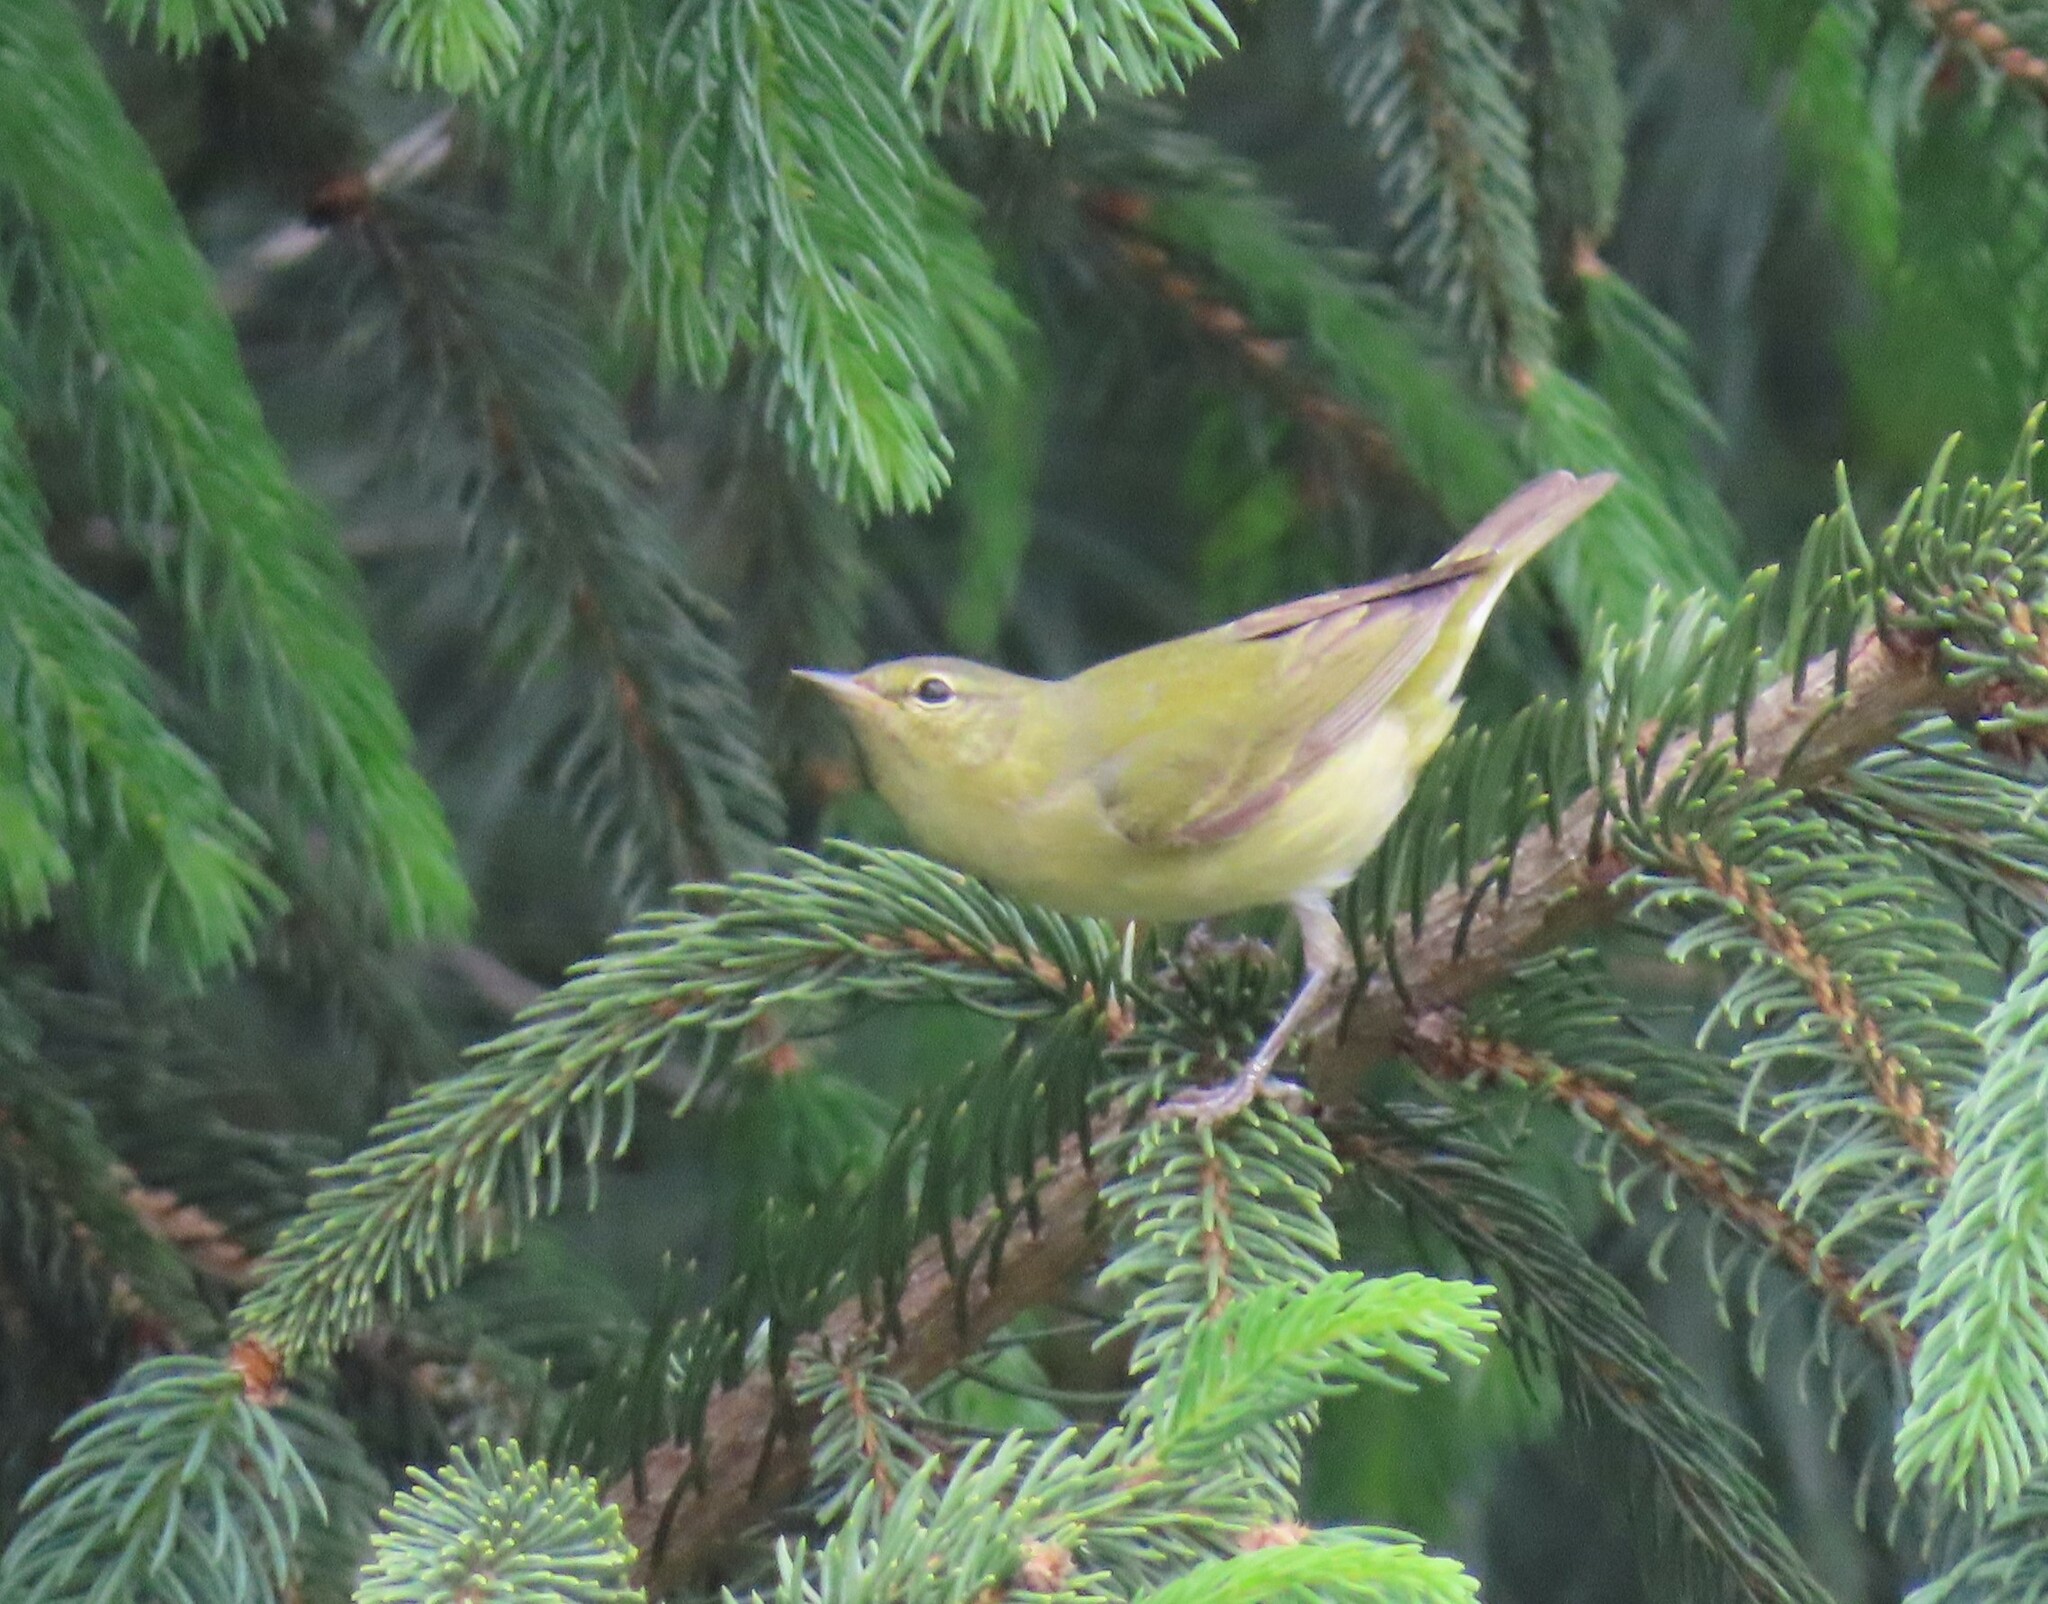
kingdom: Animalia
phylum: Chordata
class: Aves
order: Passeriformes
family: Parulidae
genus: Leiothlypis
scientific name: Leiothlypis peregrina
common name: Tennessee warbler
